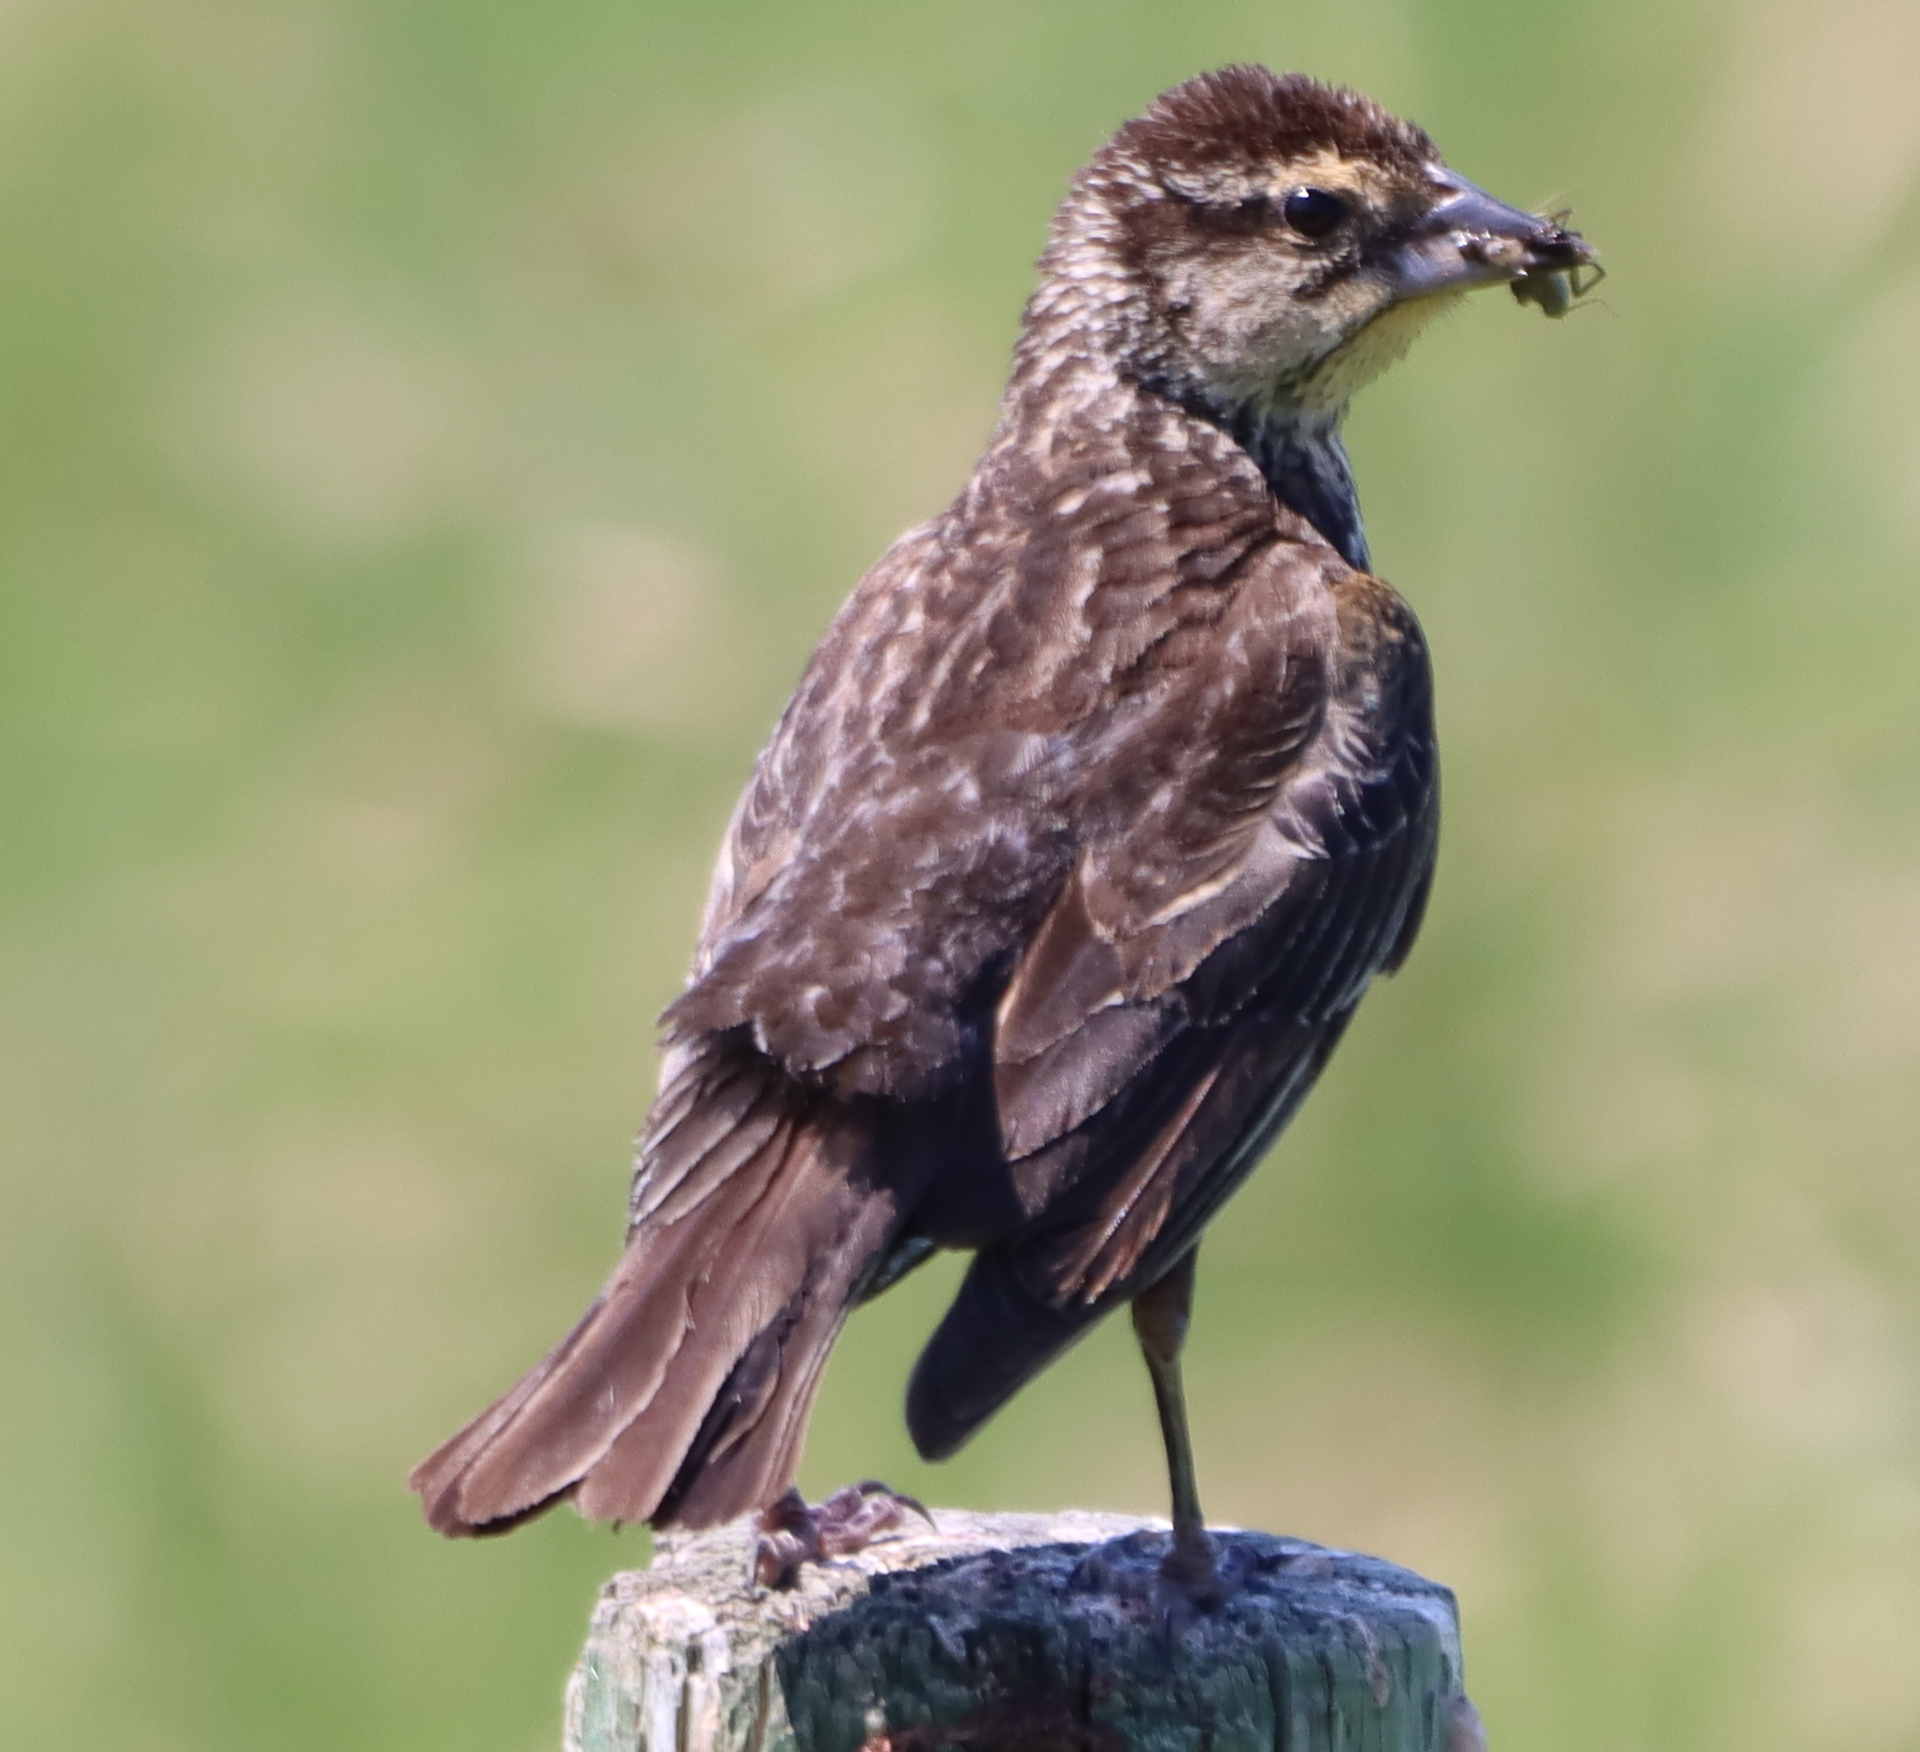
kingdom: Animalia
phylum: Chordata
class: Aves
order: Passeriformes
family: Icteridae
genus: Agelaius
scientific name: Agelaius phoeniceus
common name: Red-winged blackbird
